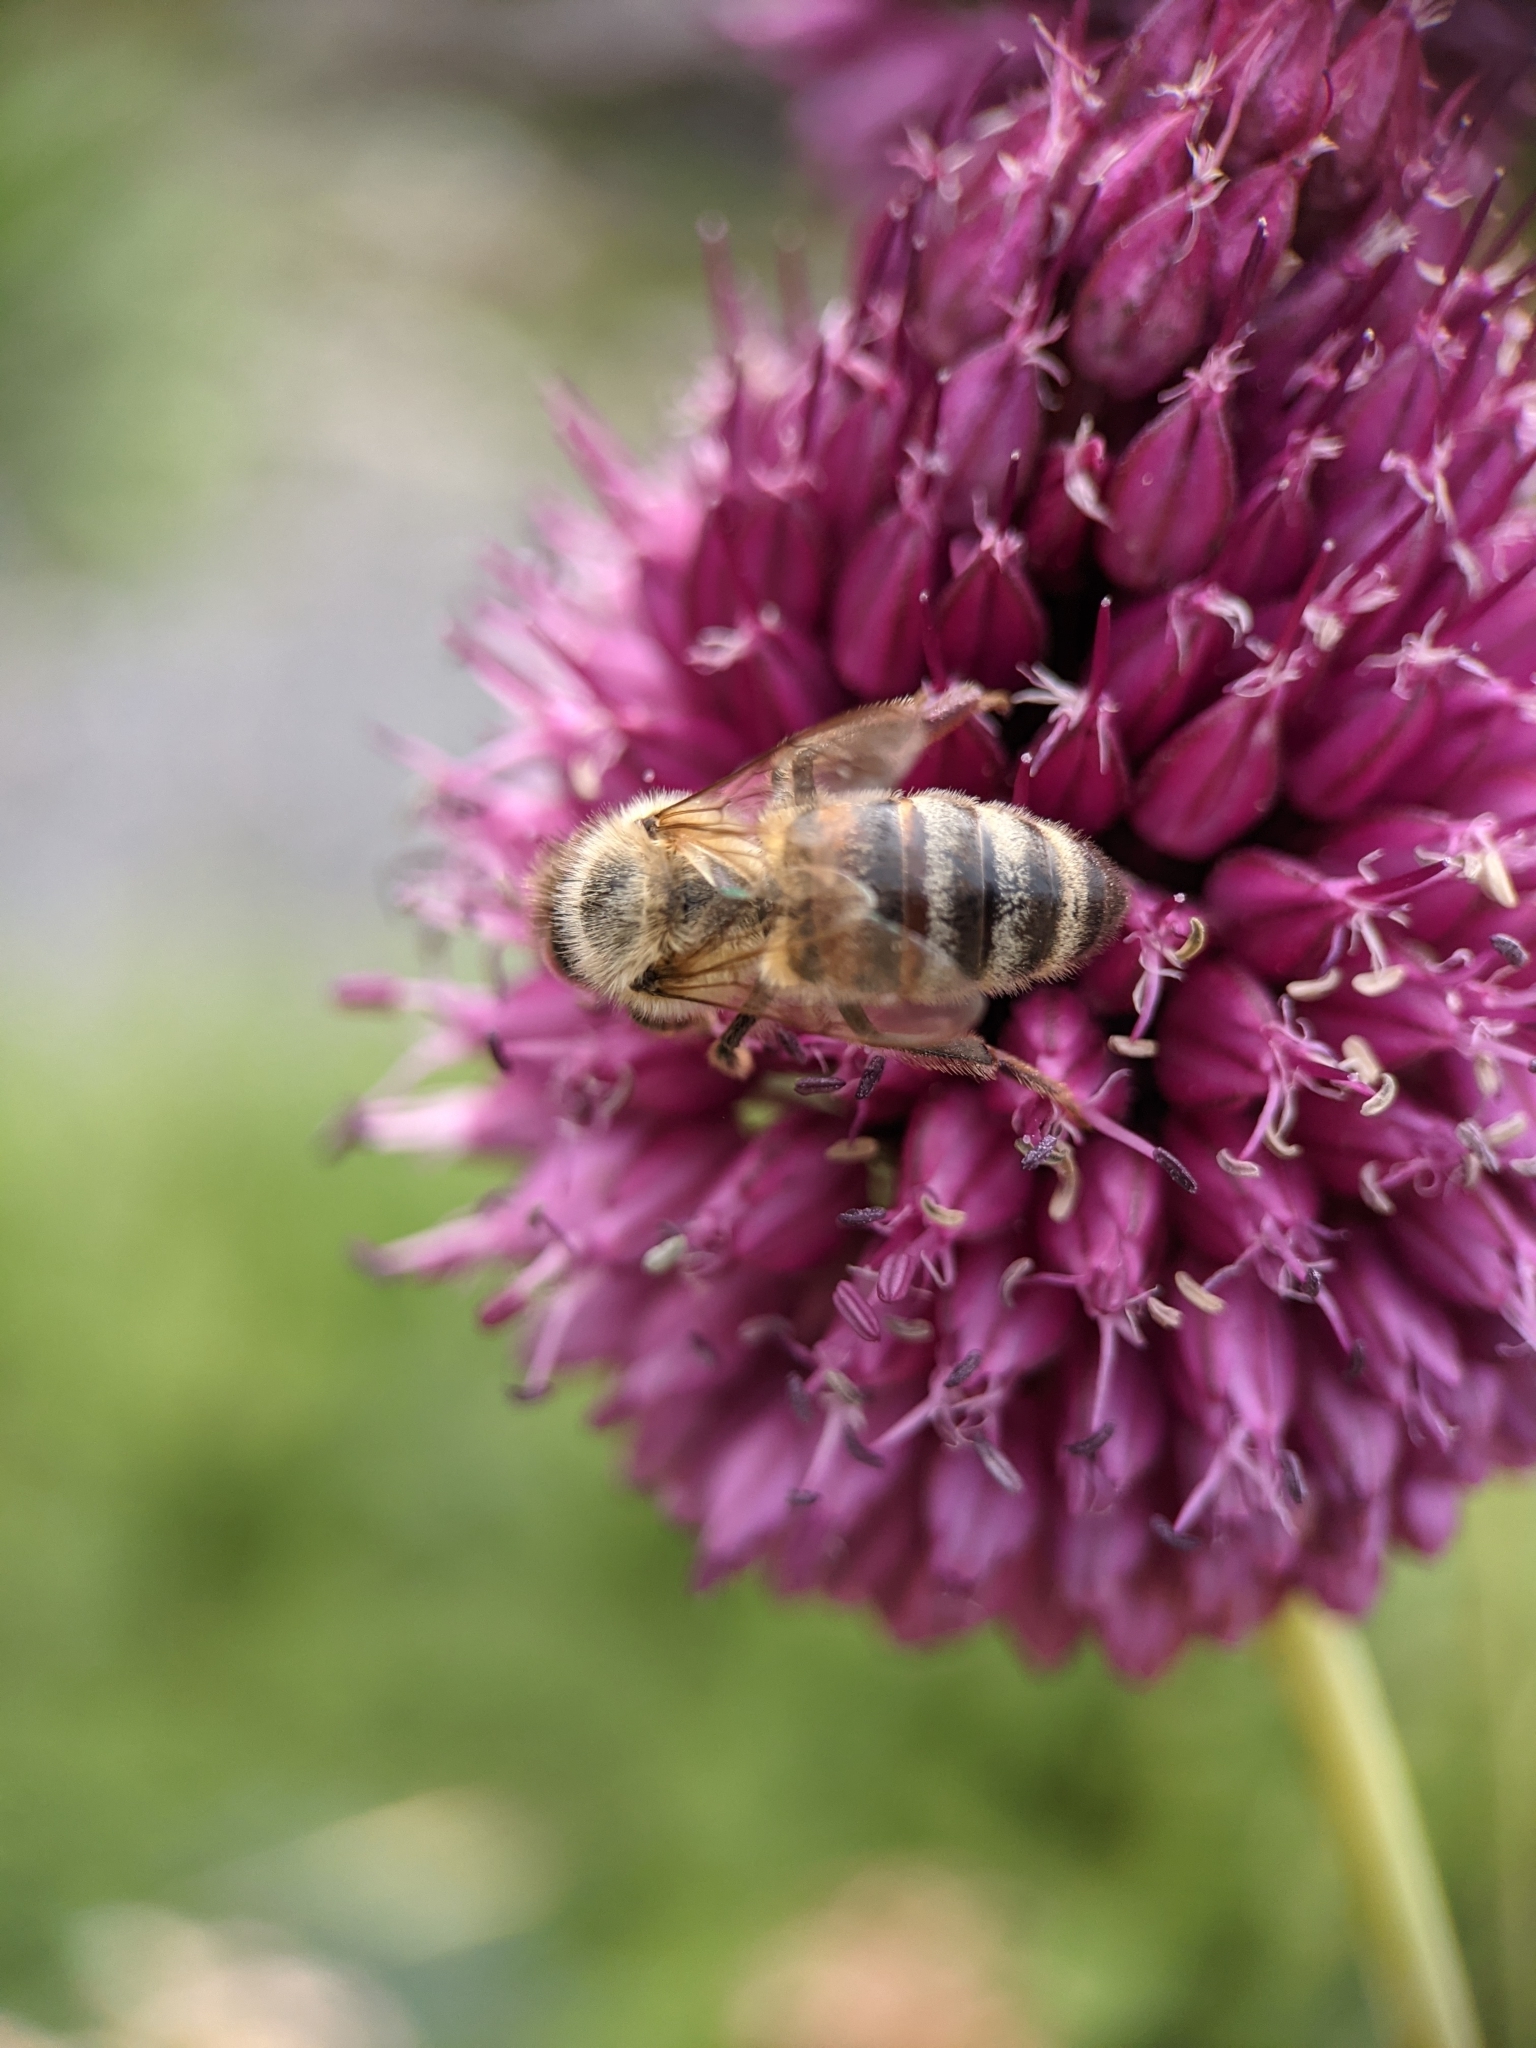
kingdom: Animalia
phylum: Arthropoda
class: Insecta
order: Hymenoptera
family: Apidae
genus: Apis
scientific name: Apis mellifera
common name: Honey bee
